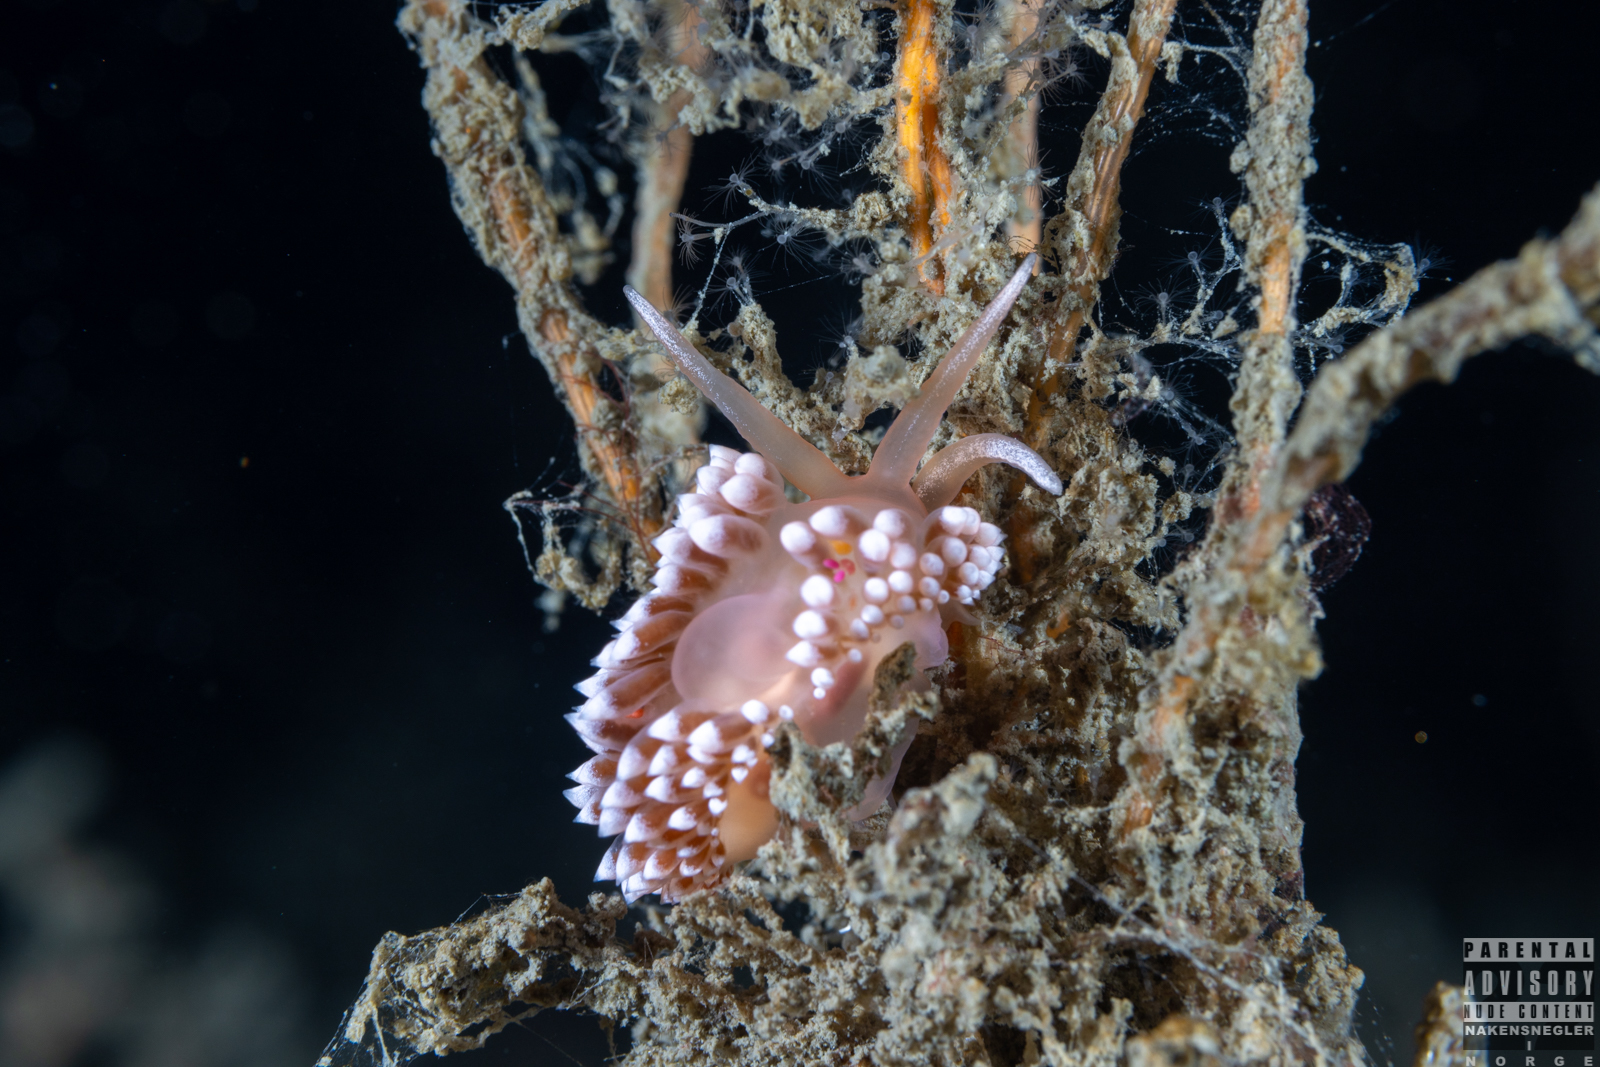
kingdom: Animalia
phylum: Mollusca
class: Gastropoda
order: Nudibranchia
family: Coryphellidae
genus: Coryphella
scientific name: Coryphella verrucosa
